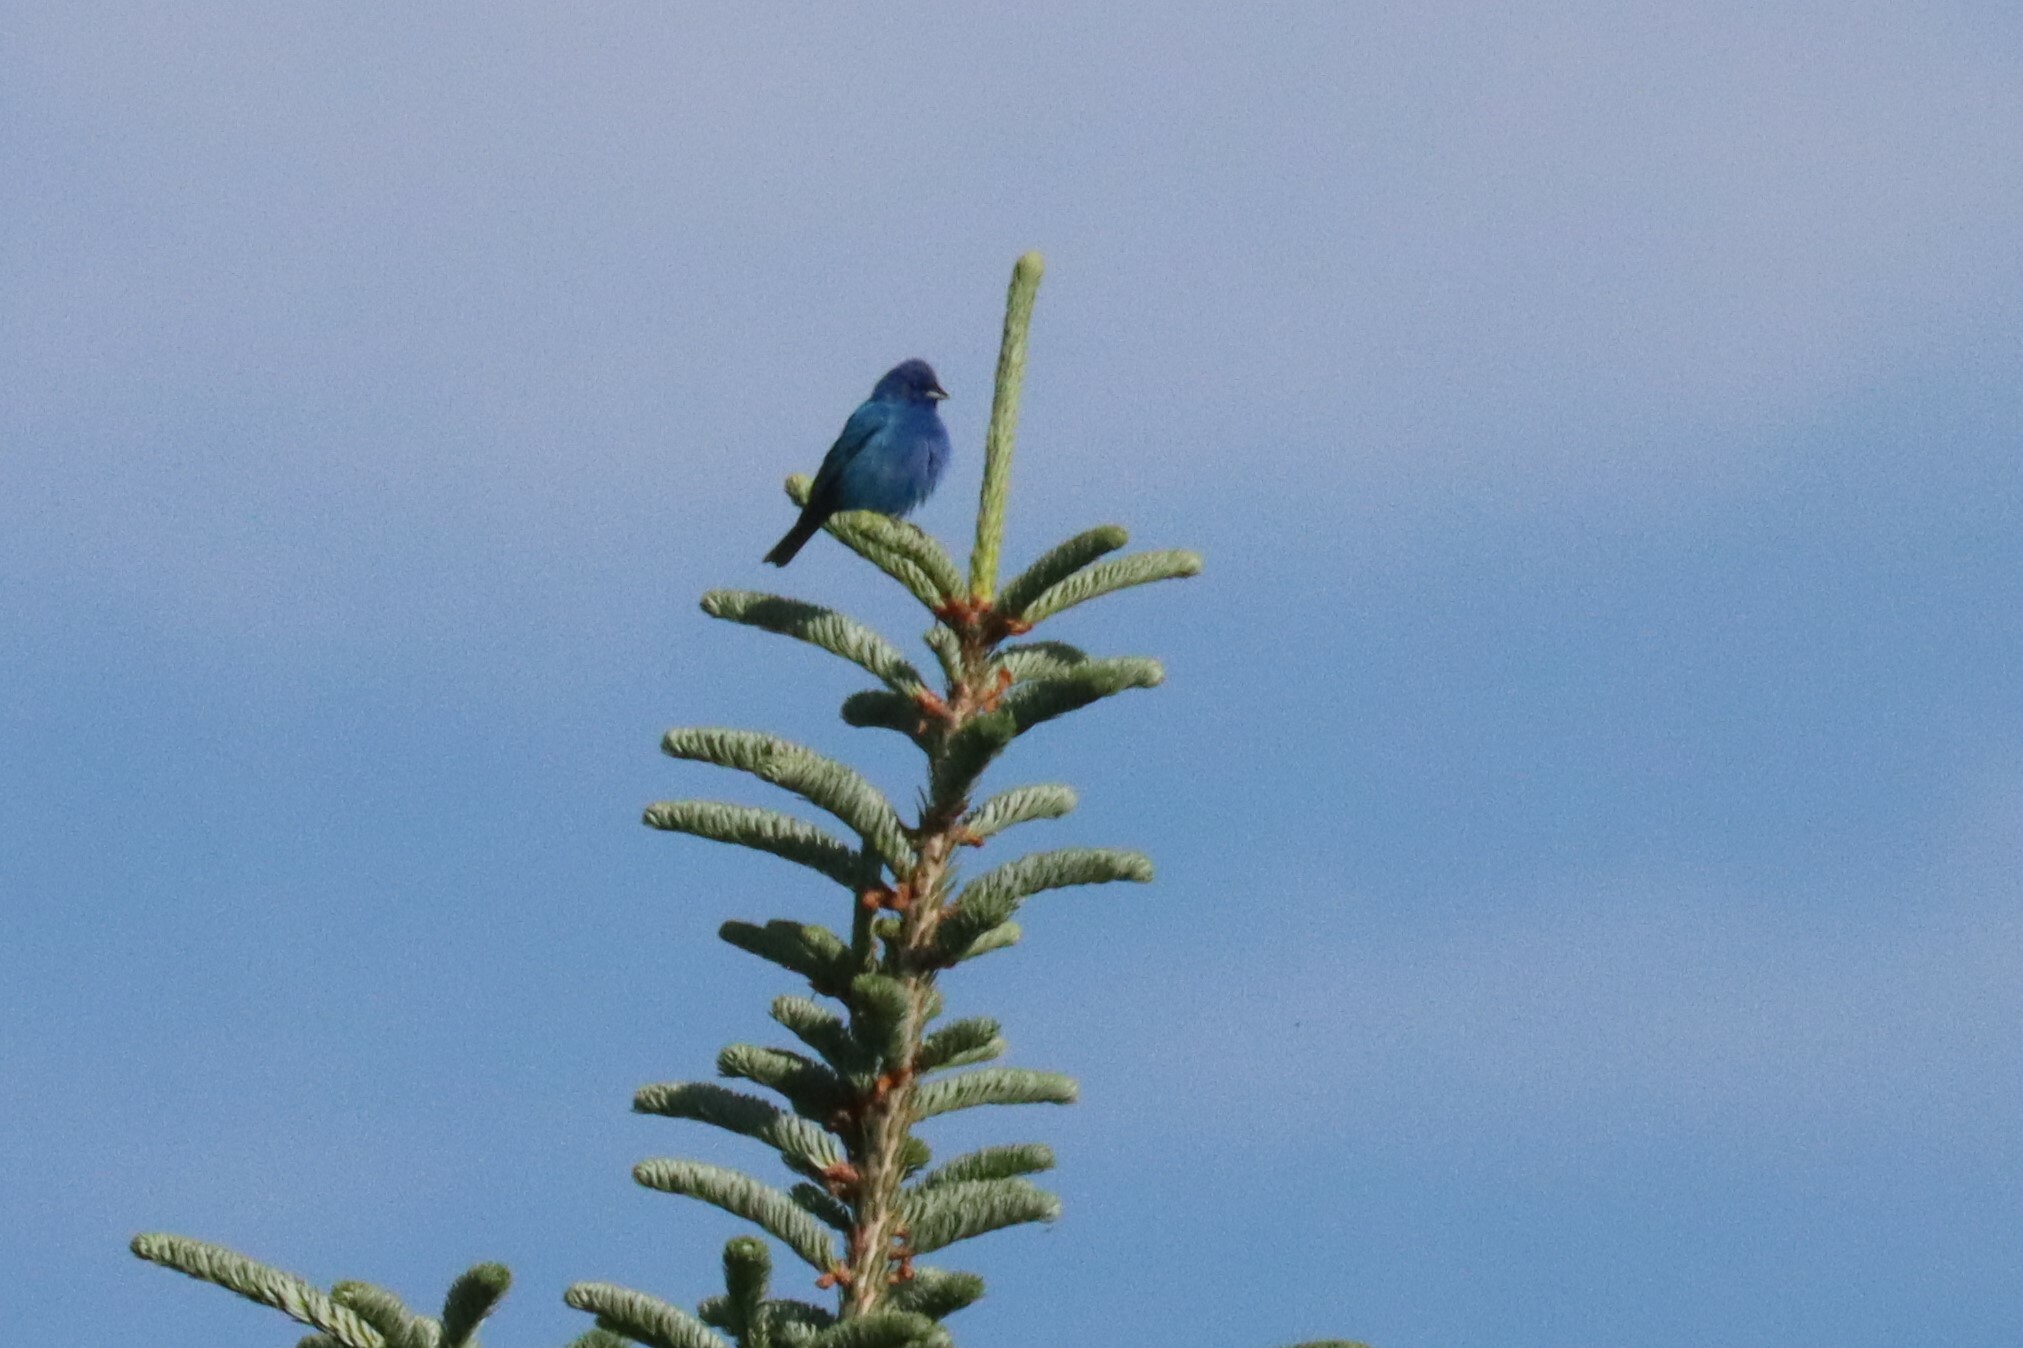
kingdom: Animalia
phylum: Chordata
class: Aves
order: Passeriformes
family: Cardinalidae
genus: Passerina
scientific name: Passerina cyanea
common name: Indigo bunting
